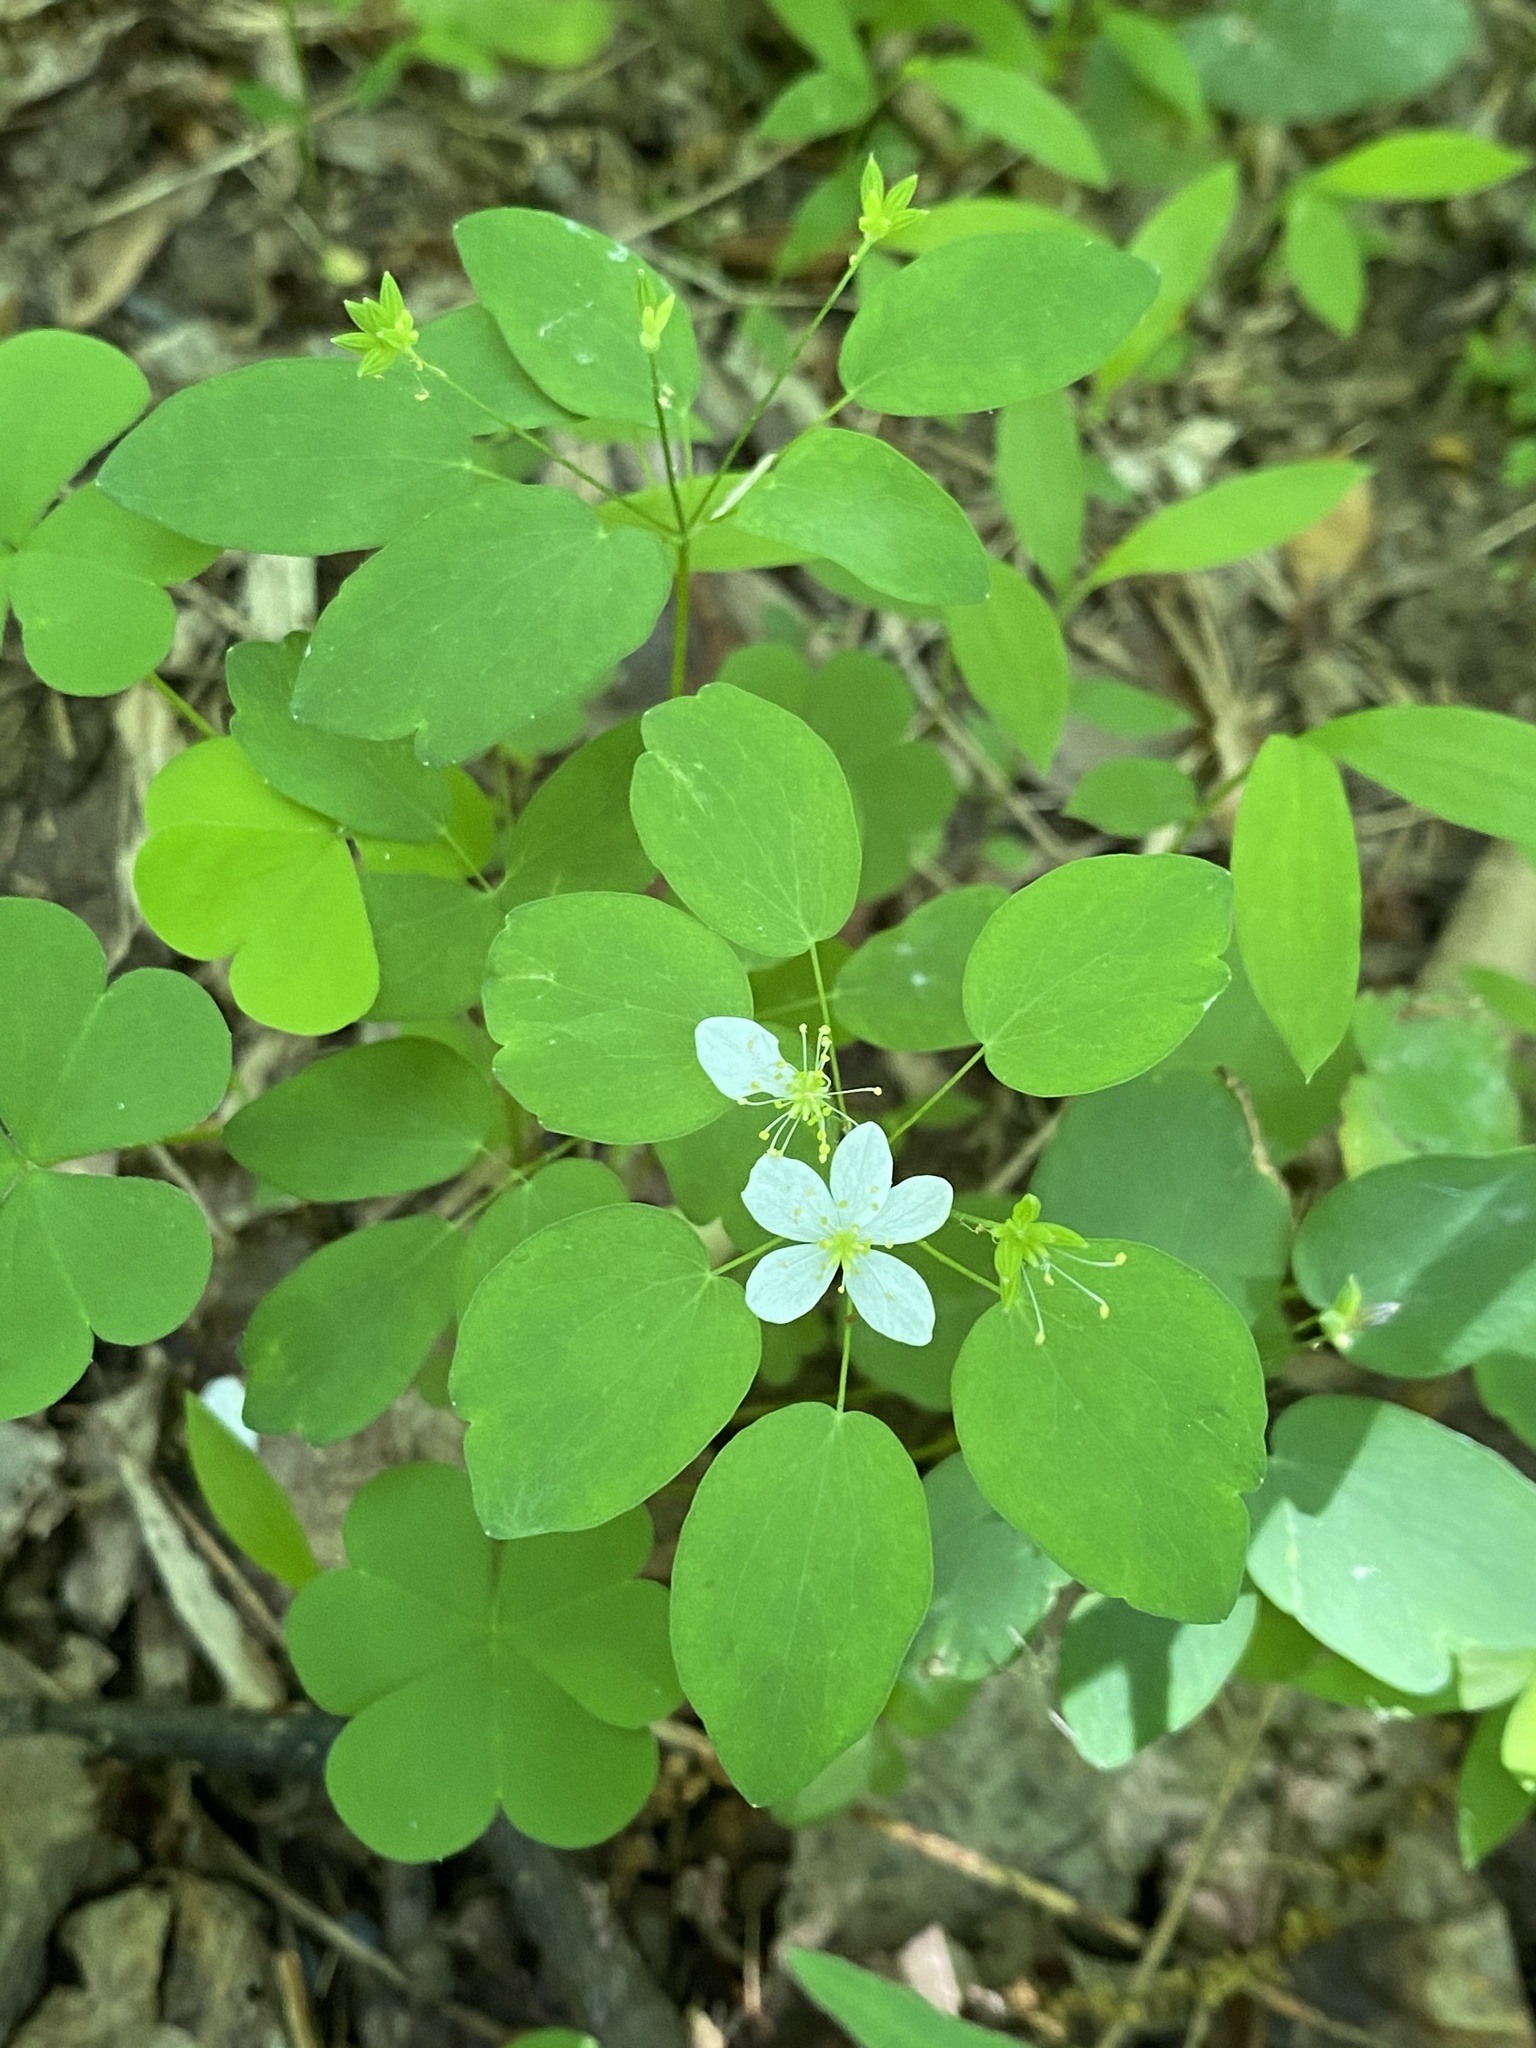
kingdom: Plantae
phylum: Tracheophyta
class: Magnoliopsida
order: Ranunculales
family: Ranunculaceae
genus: Thalictrum
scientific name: Thalictrum thalictroides
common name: Rue-anemone
